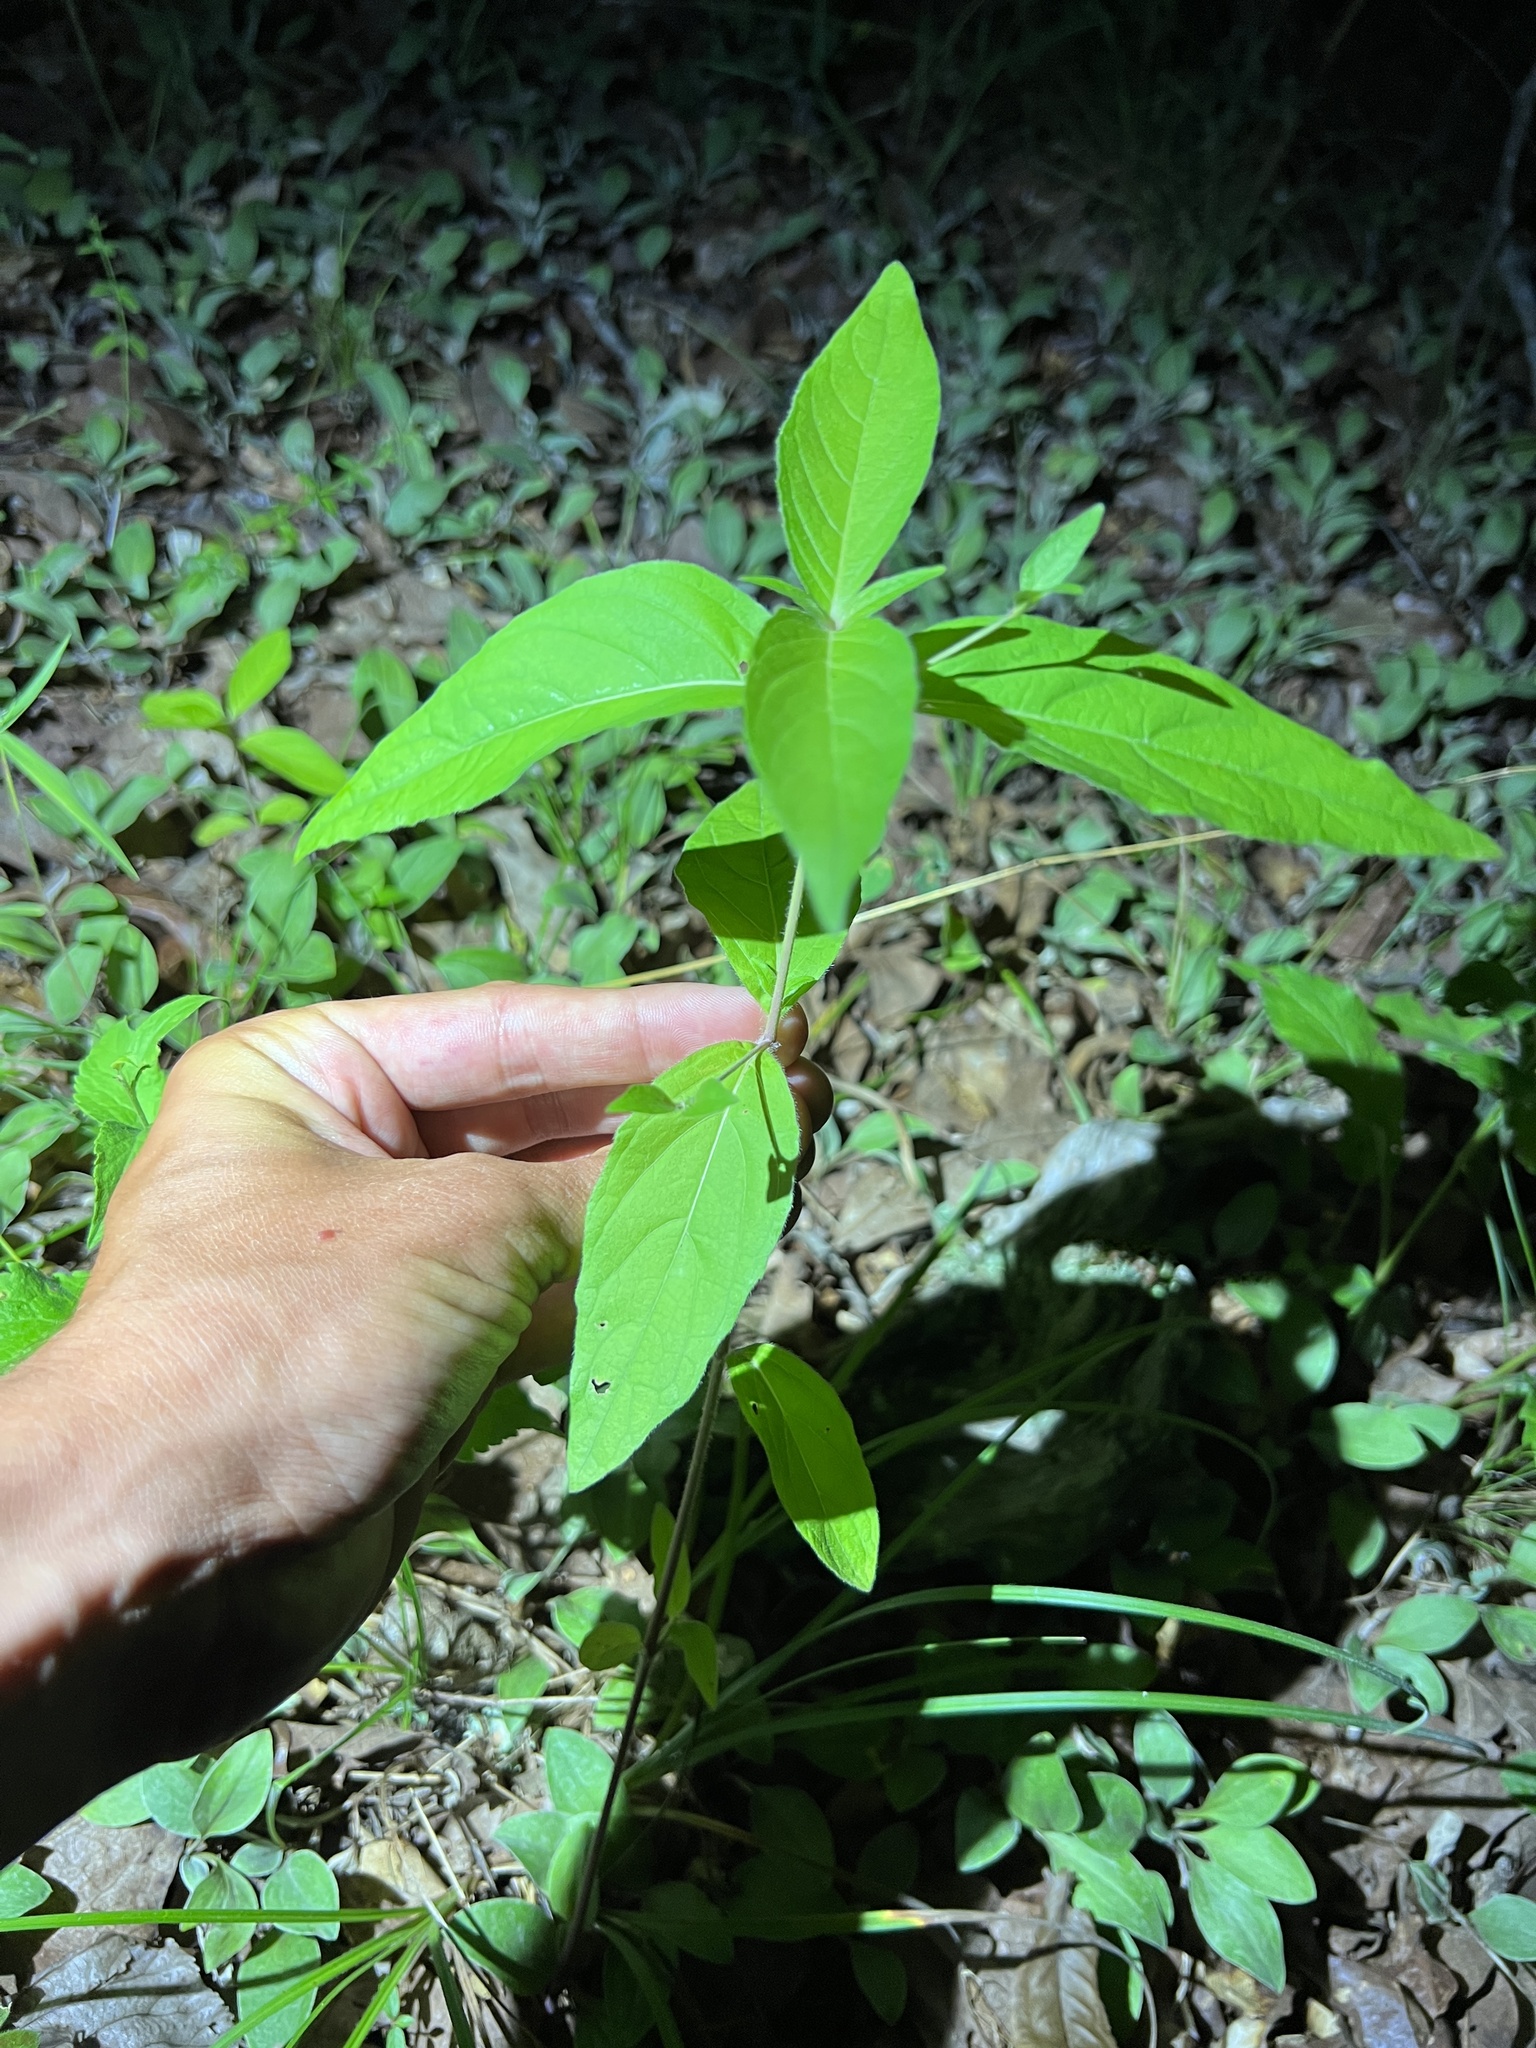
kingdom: Plantae
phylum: Tracheophyta
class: Magnoliopsida
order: Lamiales
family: Acanthaceae
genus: Ruellia
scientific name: Ruellia pedunculata
